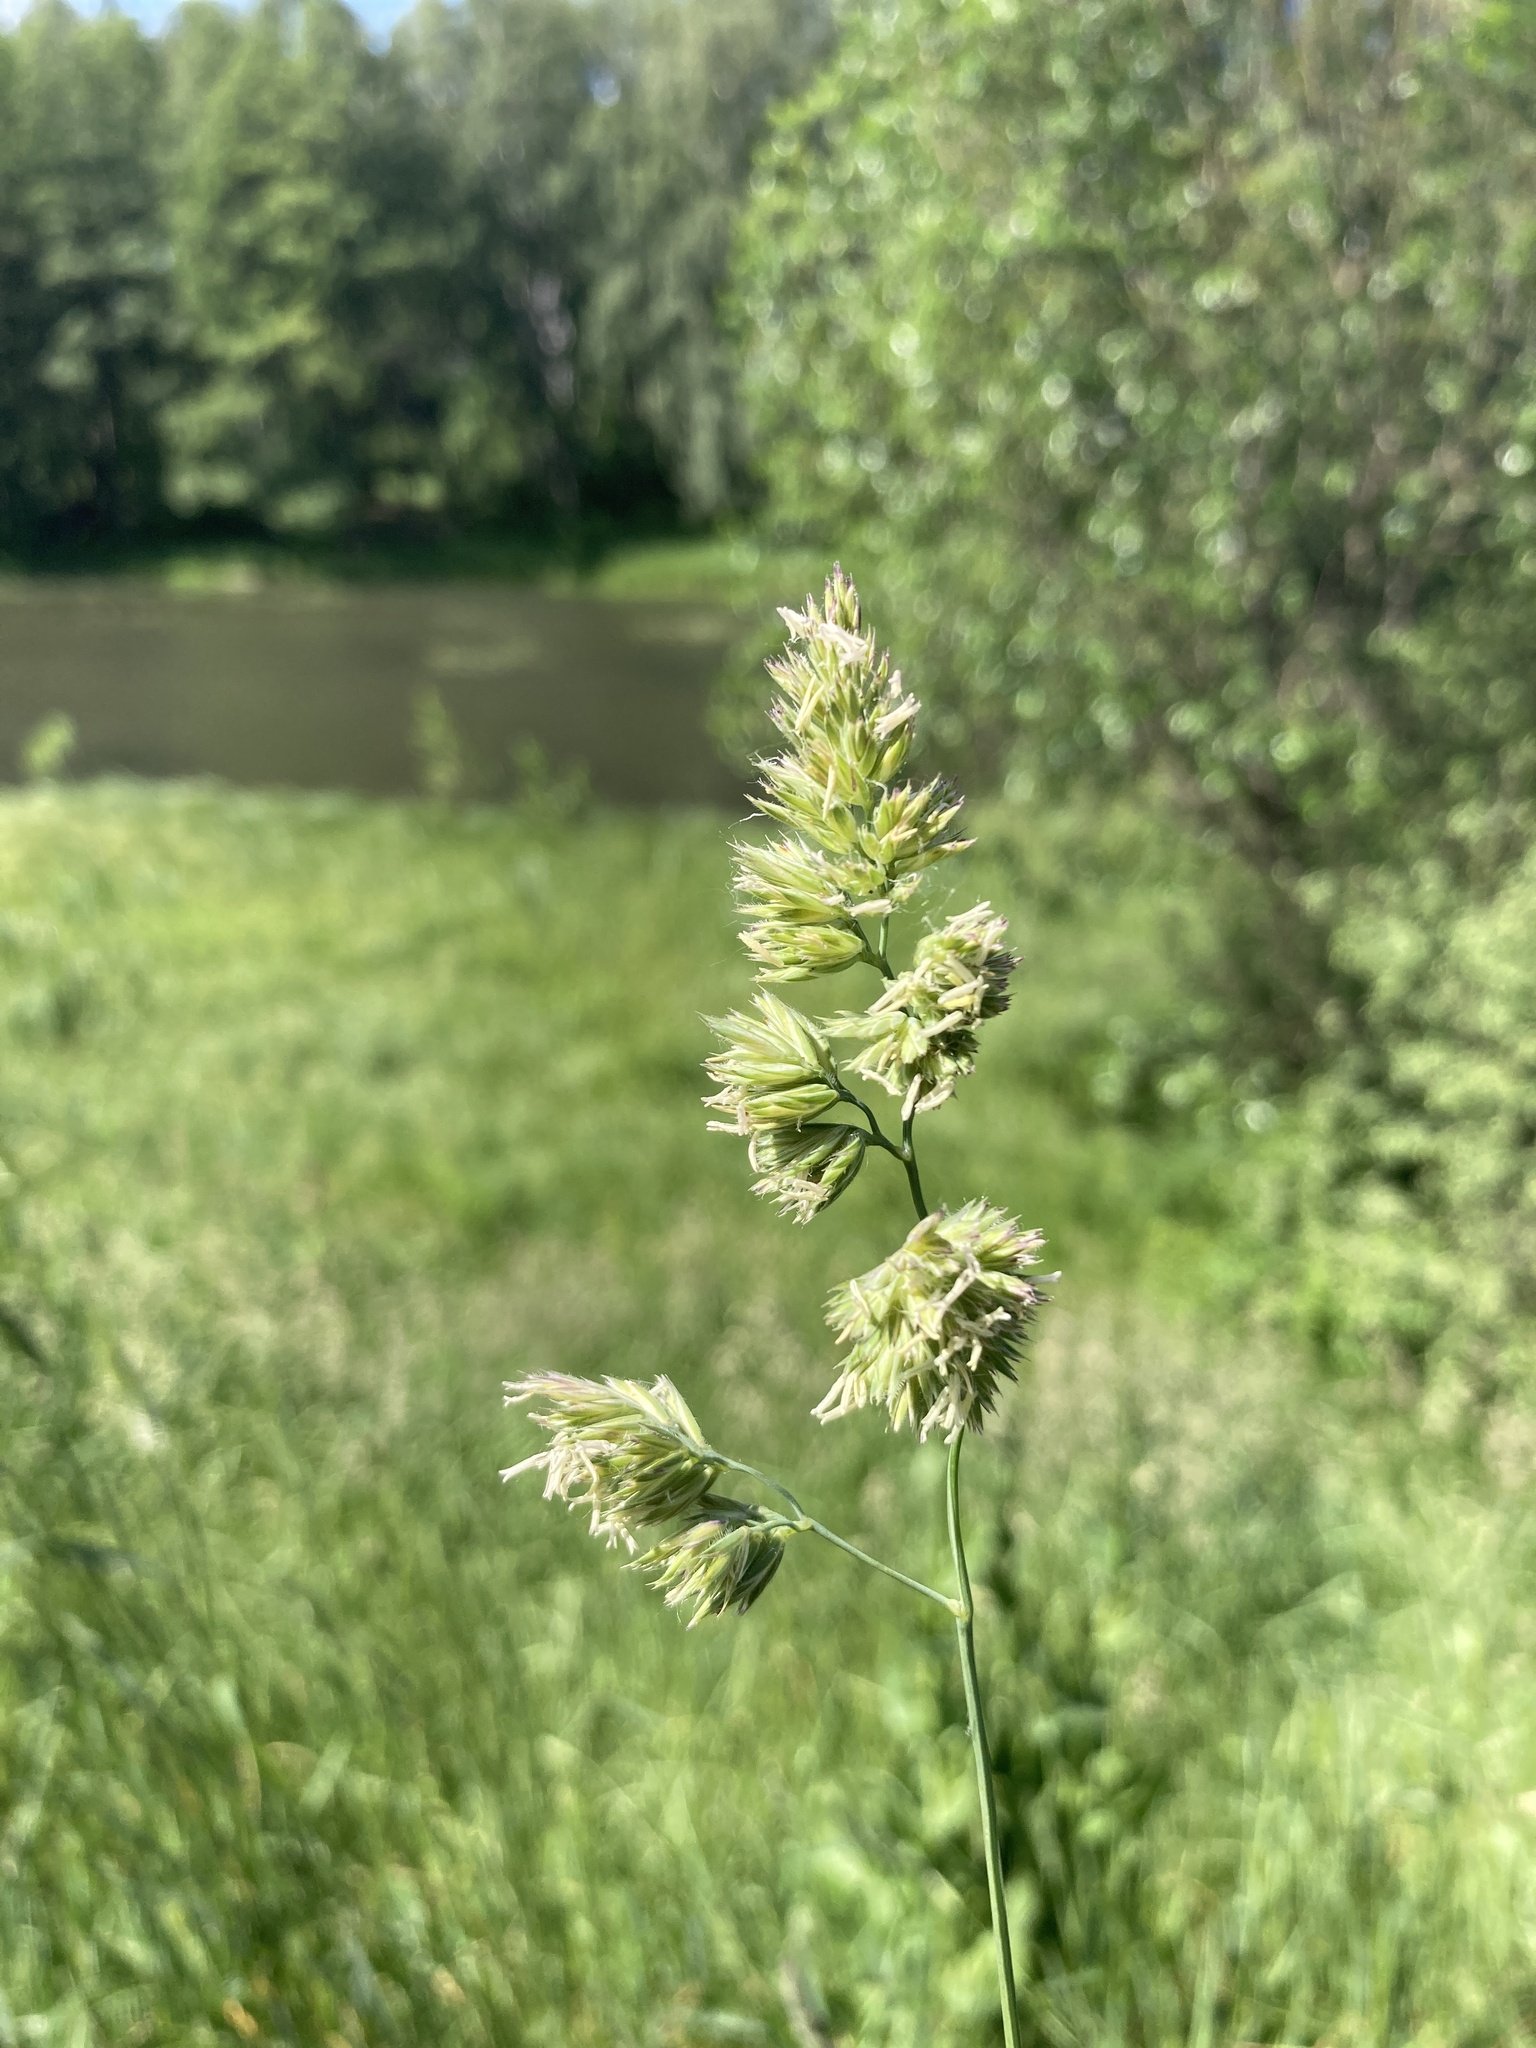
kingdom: Plantae
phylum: Tracheophyta
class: Liliopsida
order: Poales
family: Poaceae
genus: Dactylis
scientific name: Dactylis glomerata
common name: Orchardgrass
